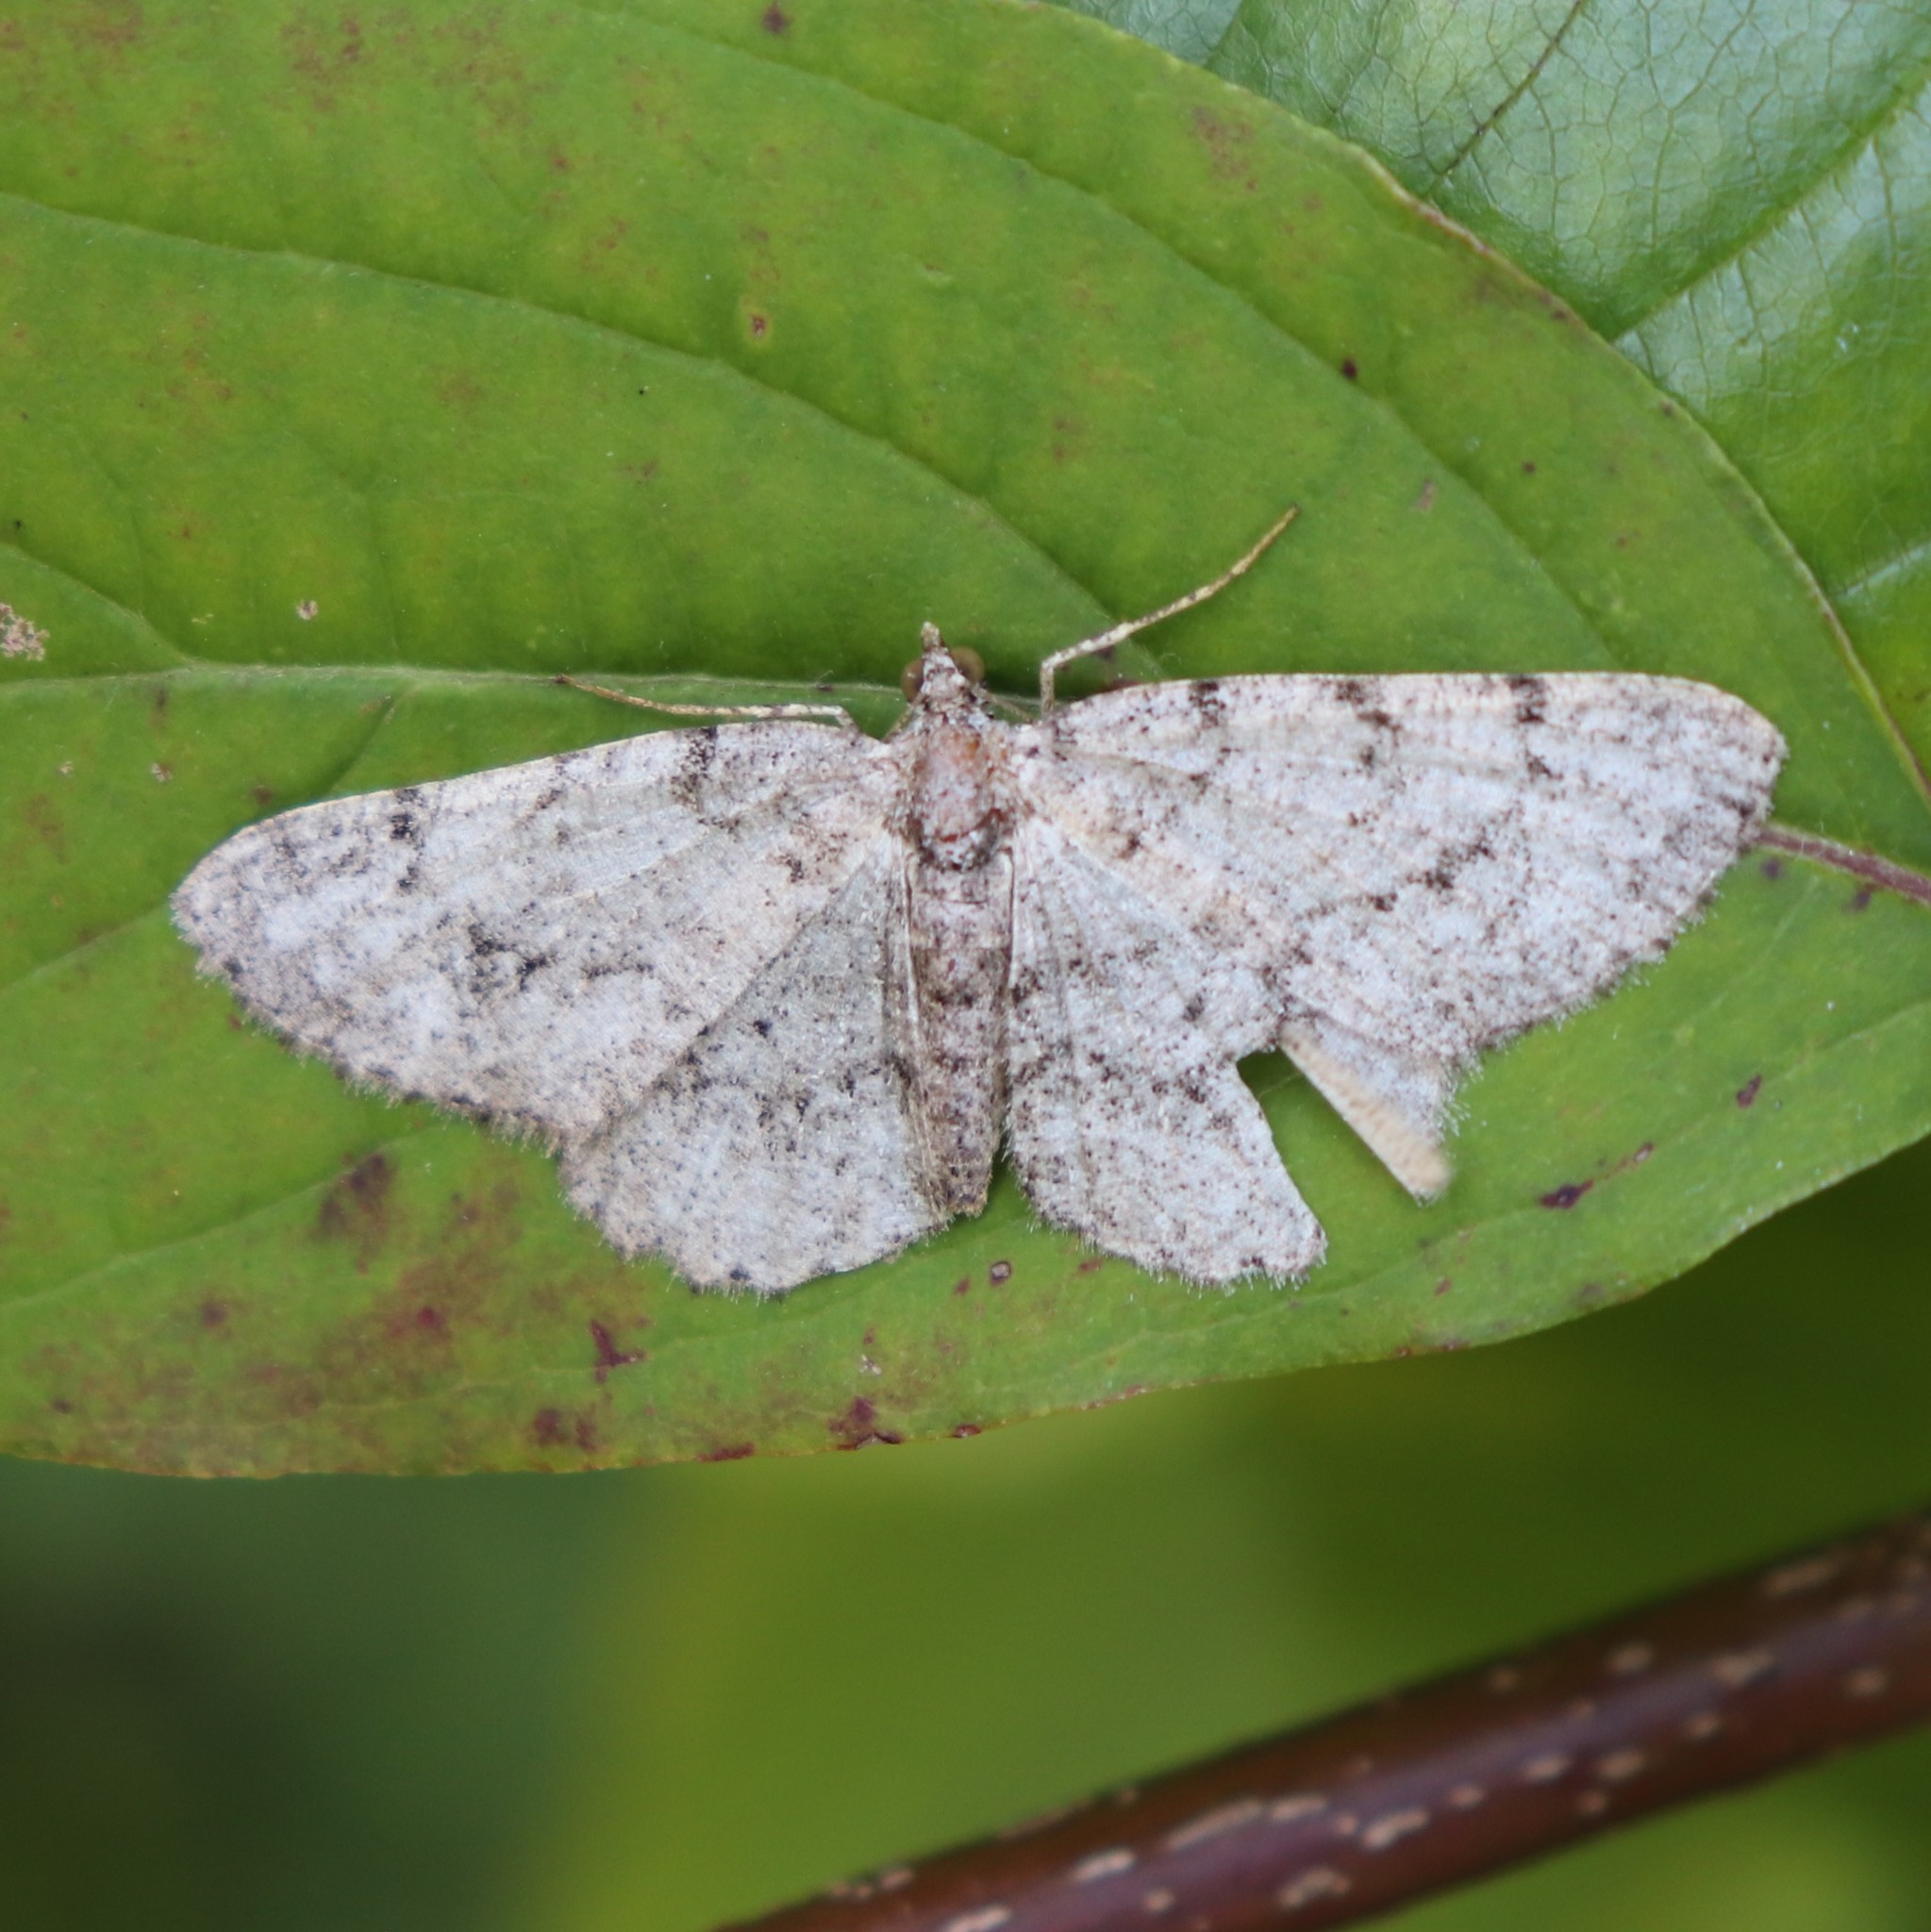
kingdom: Animalia
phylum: Arthropoda
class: Insecta
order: Lepidoptera
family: Geometridae
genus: Protoboarmia
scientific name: Protoboarmia porcelaria
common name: Porcelain gray
